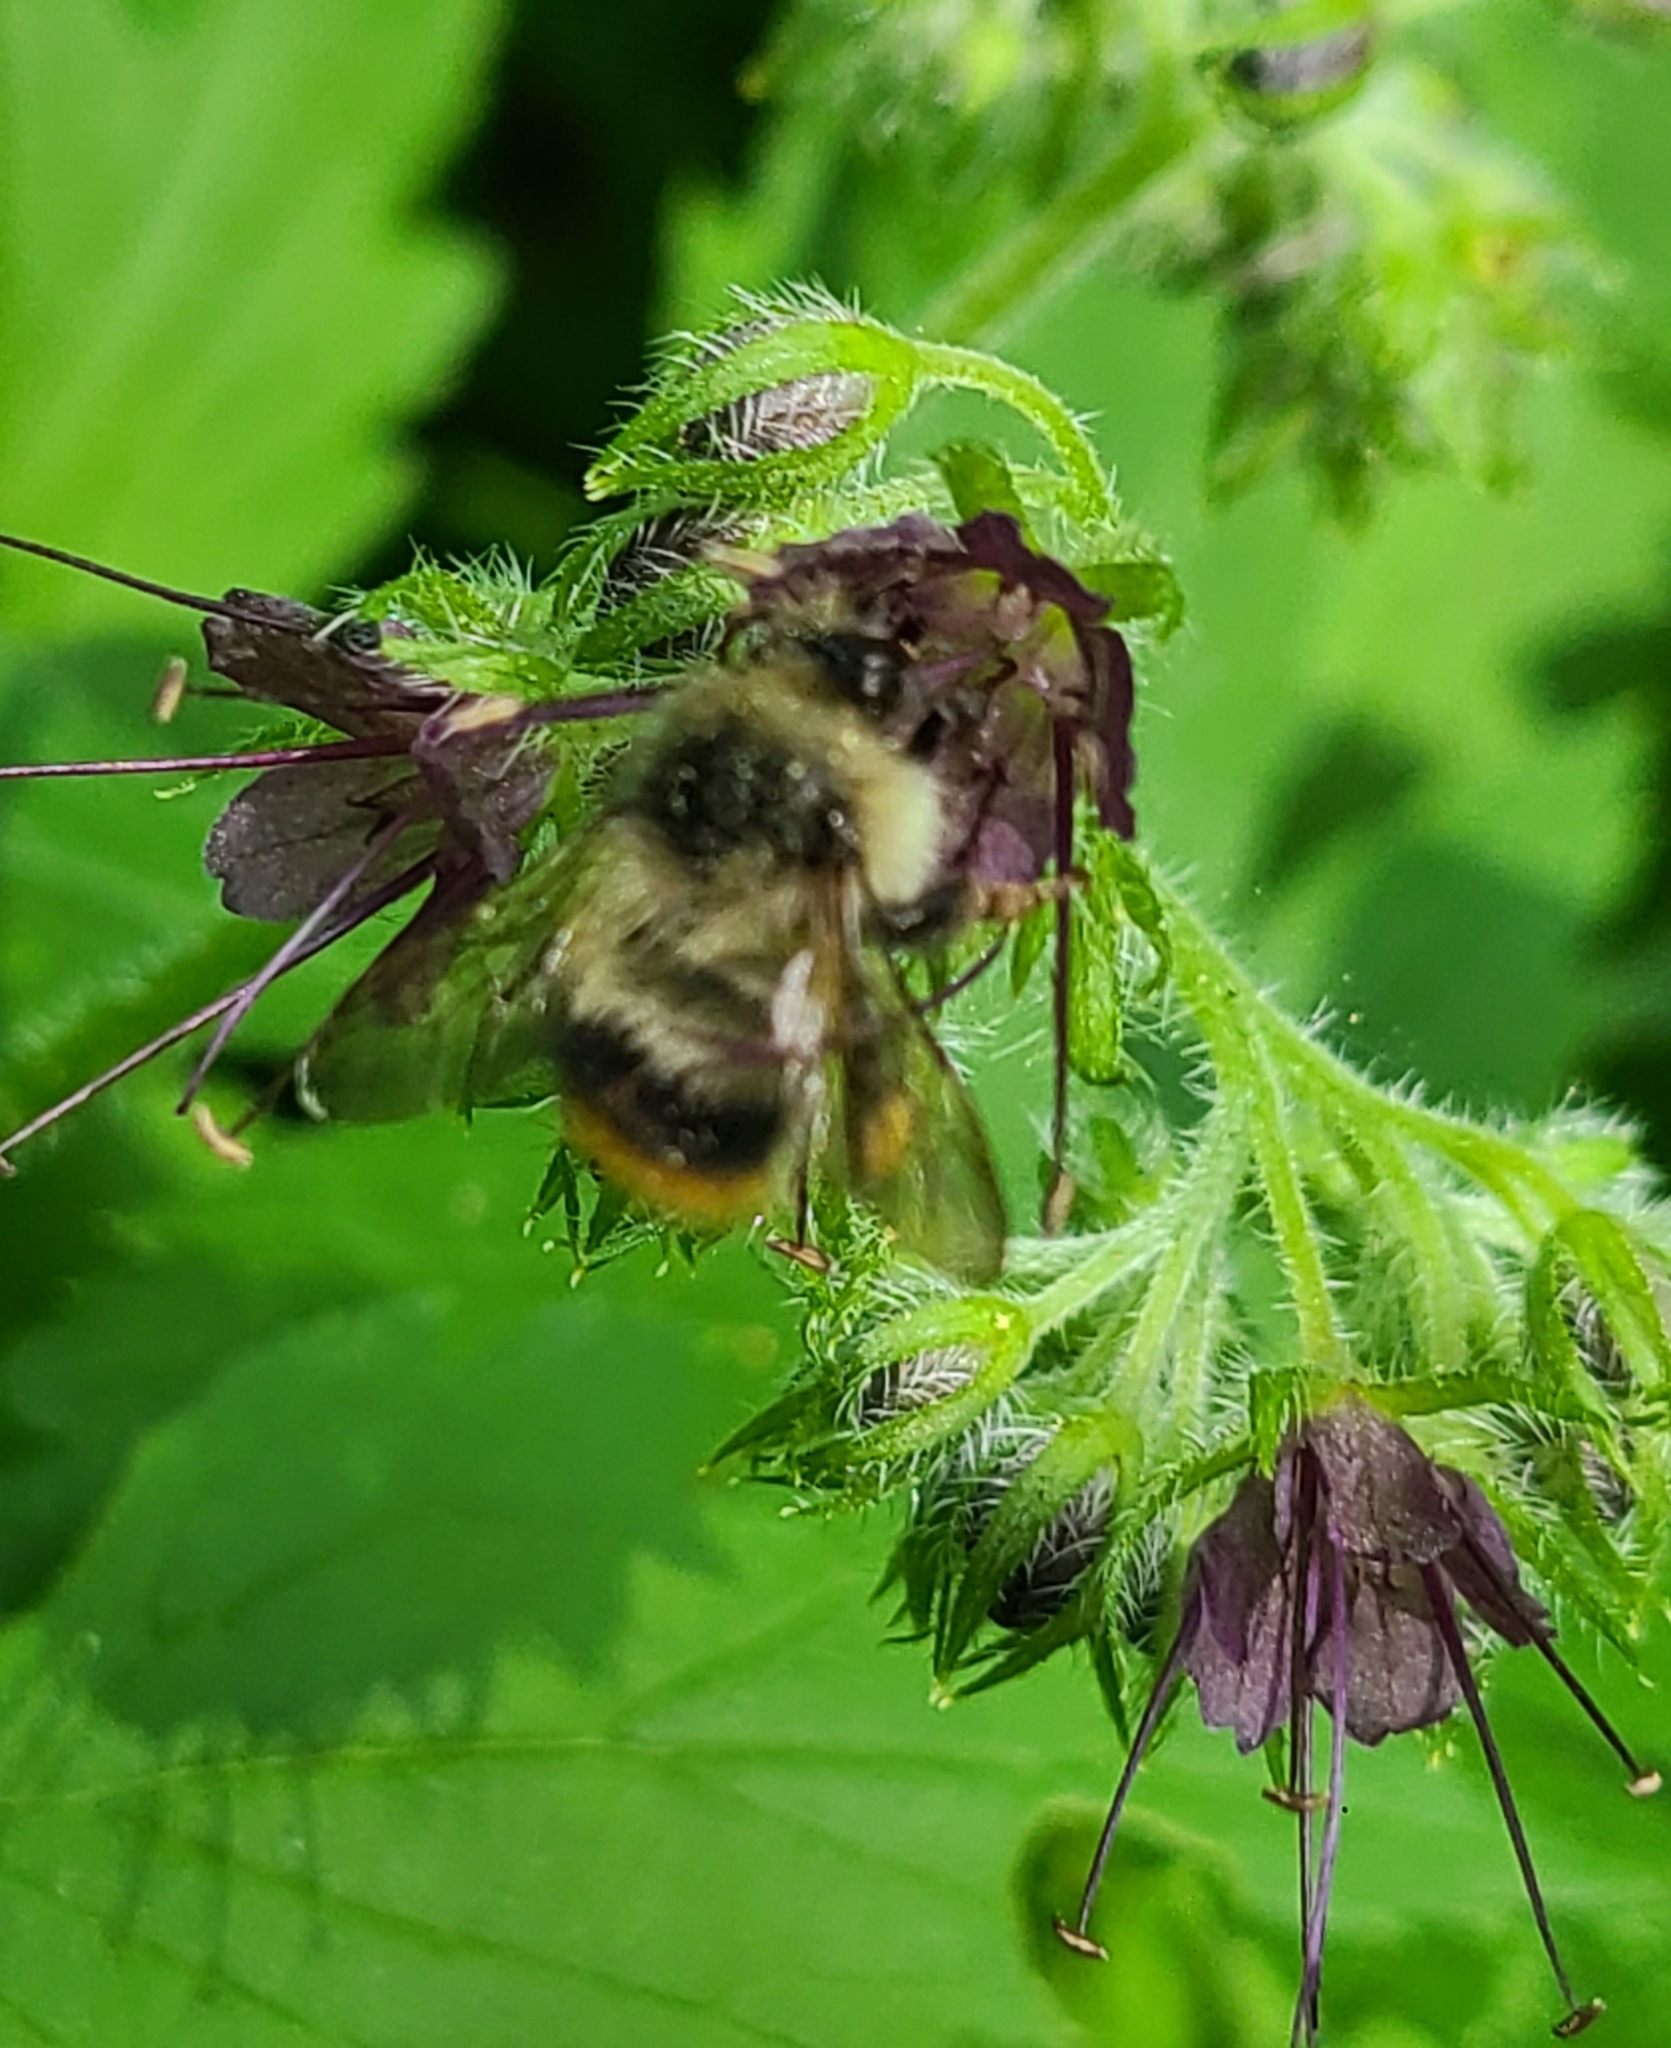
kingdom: Animalia
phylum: Arthropoda
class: Insecta
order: Hymenoptera
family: Apidae
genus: Bombus
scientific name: Bombus mixtus
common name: Fuzzy-horned bumble bee
